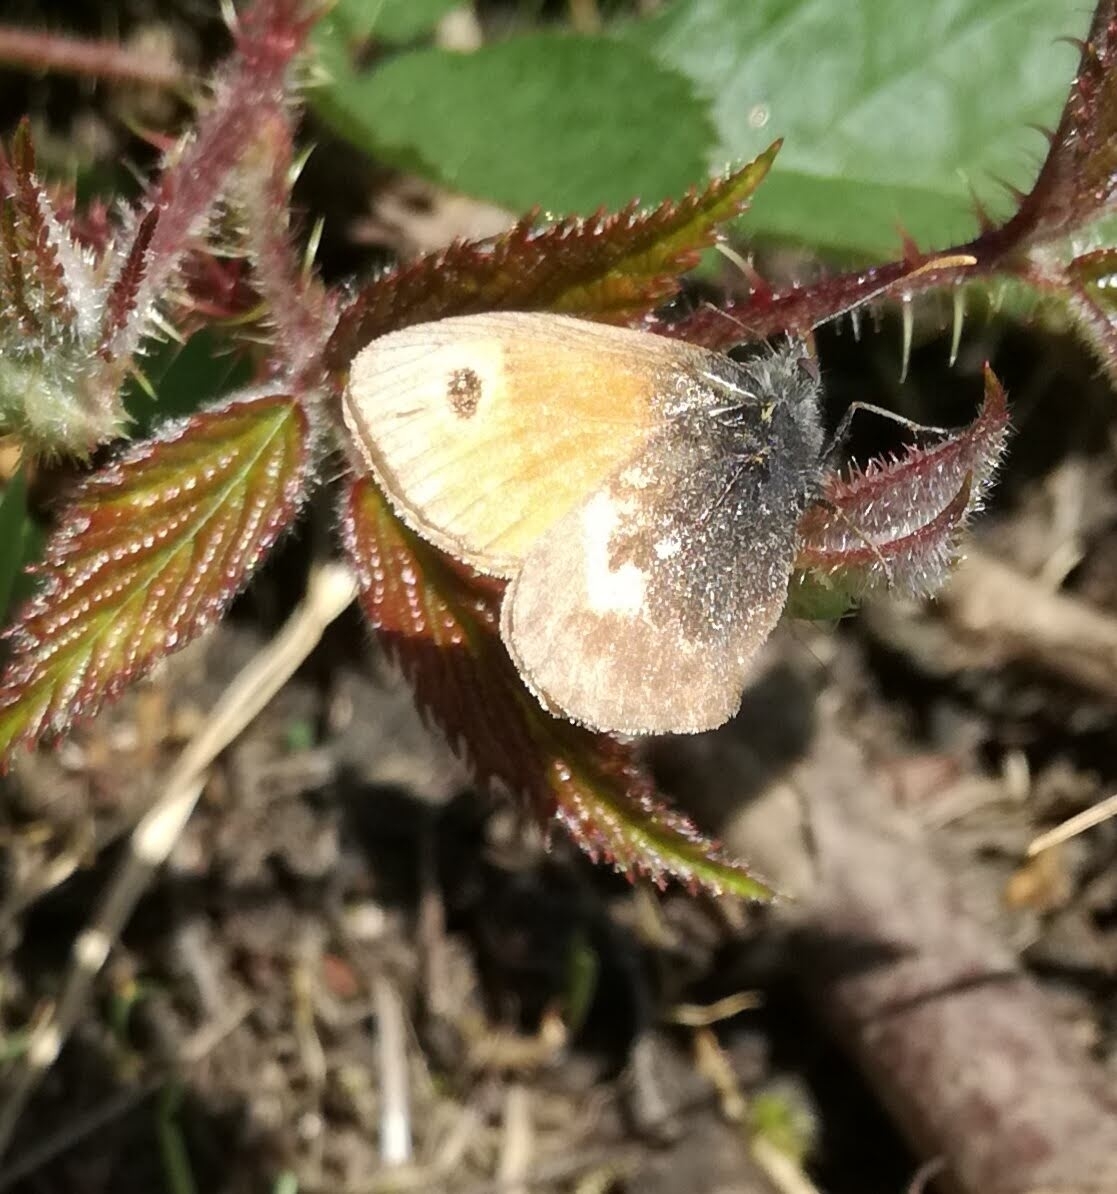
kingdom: Animalia
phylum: Arthropoda
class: Insecta
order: Lepidoptera
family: Nymphalidae
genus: Coenonympha
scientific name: Coenonympha pamphilus
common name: Small heath
